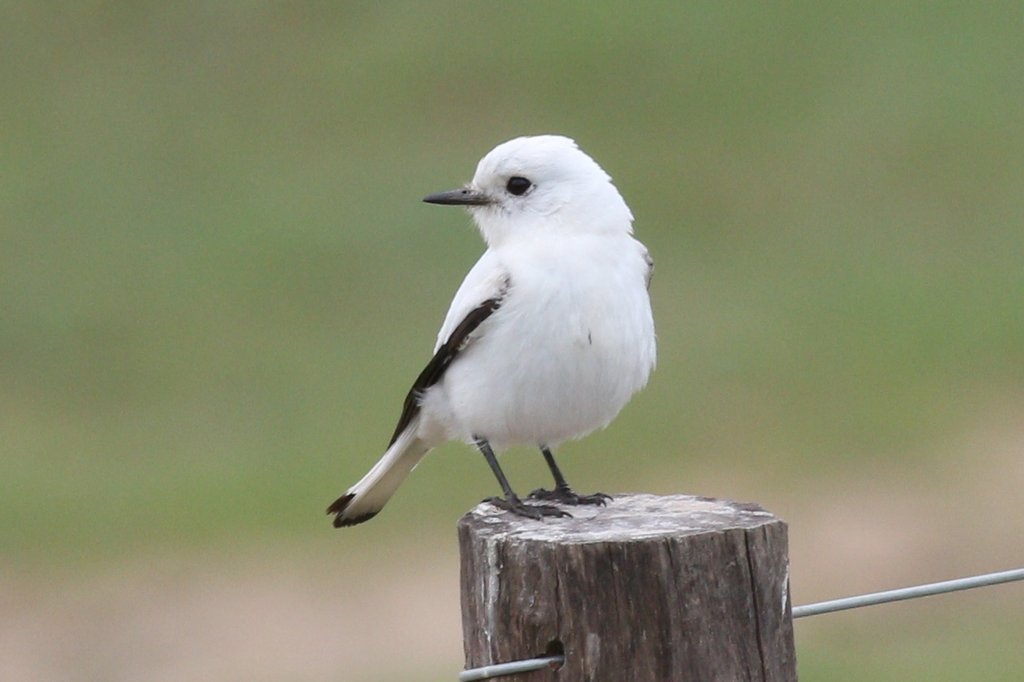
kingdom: Animalia
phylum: Chordata
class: Aves
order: Passeriformes
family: Tyrannidae
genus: Xolmis
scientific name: Xolmis irupero
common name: White monjita
